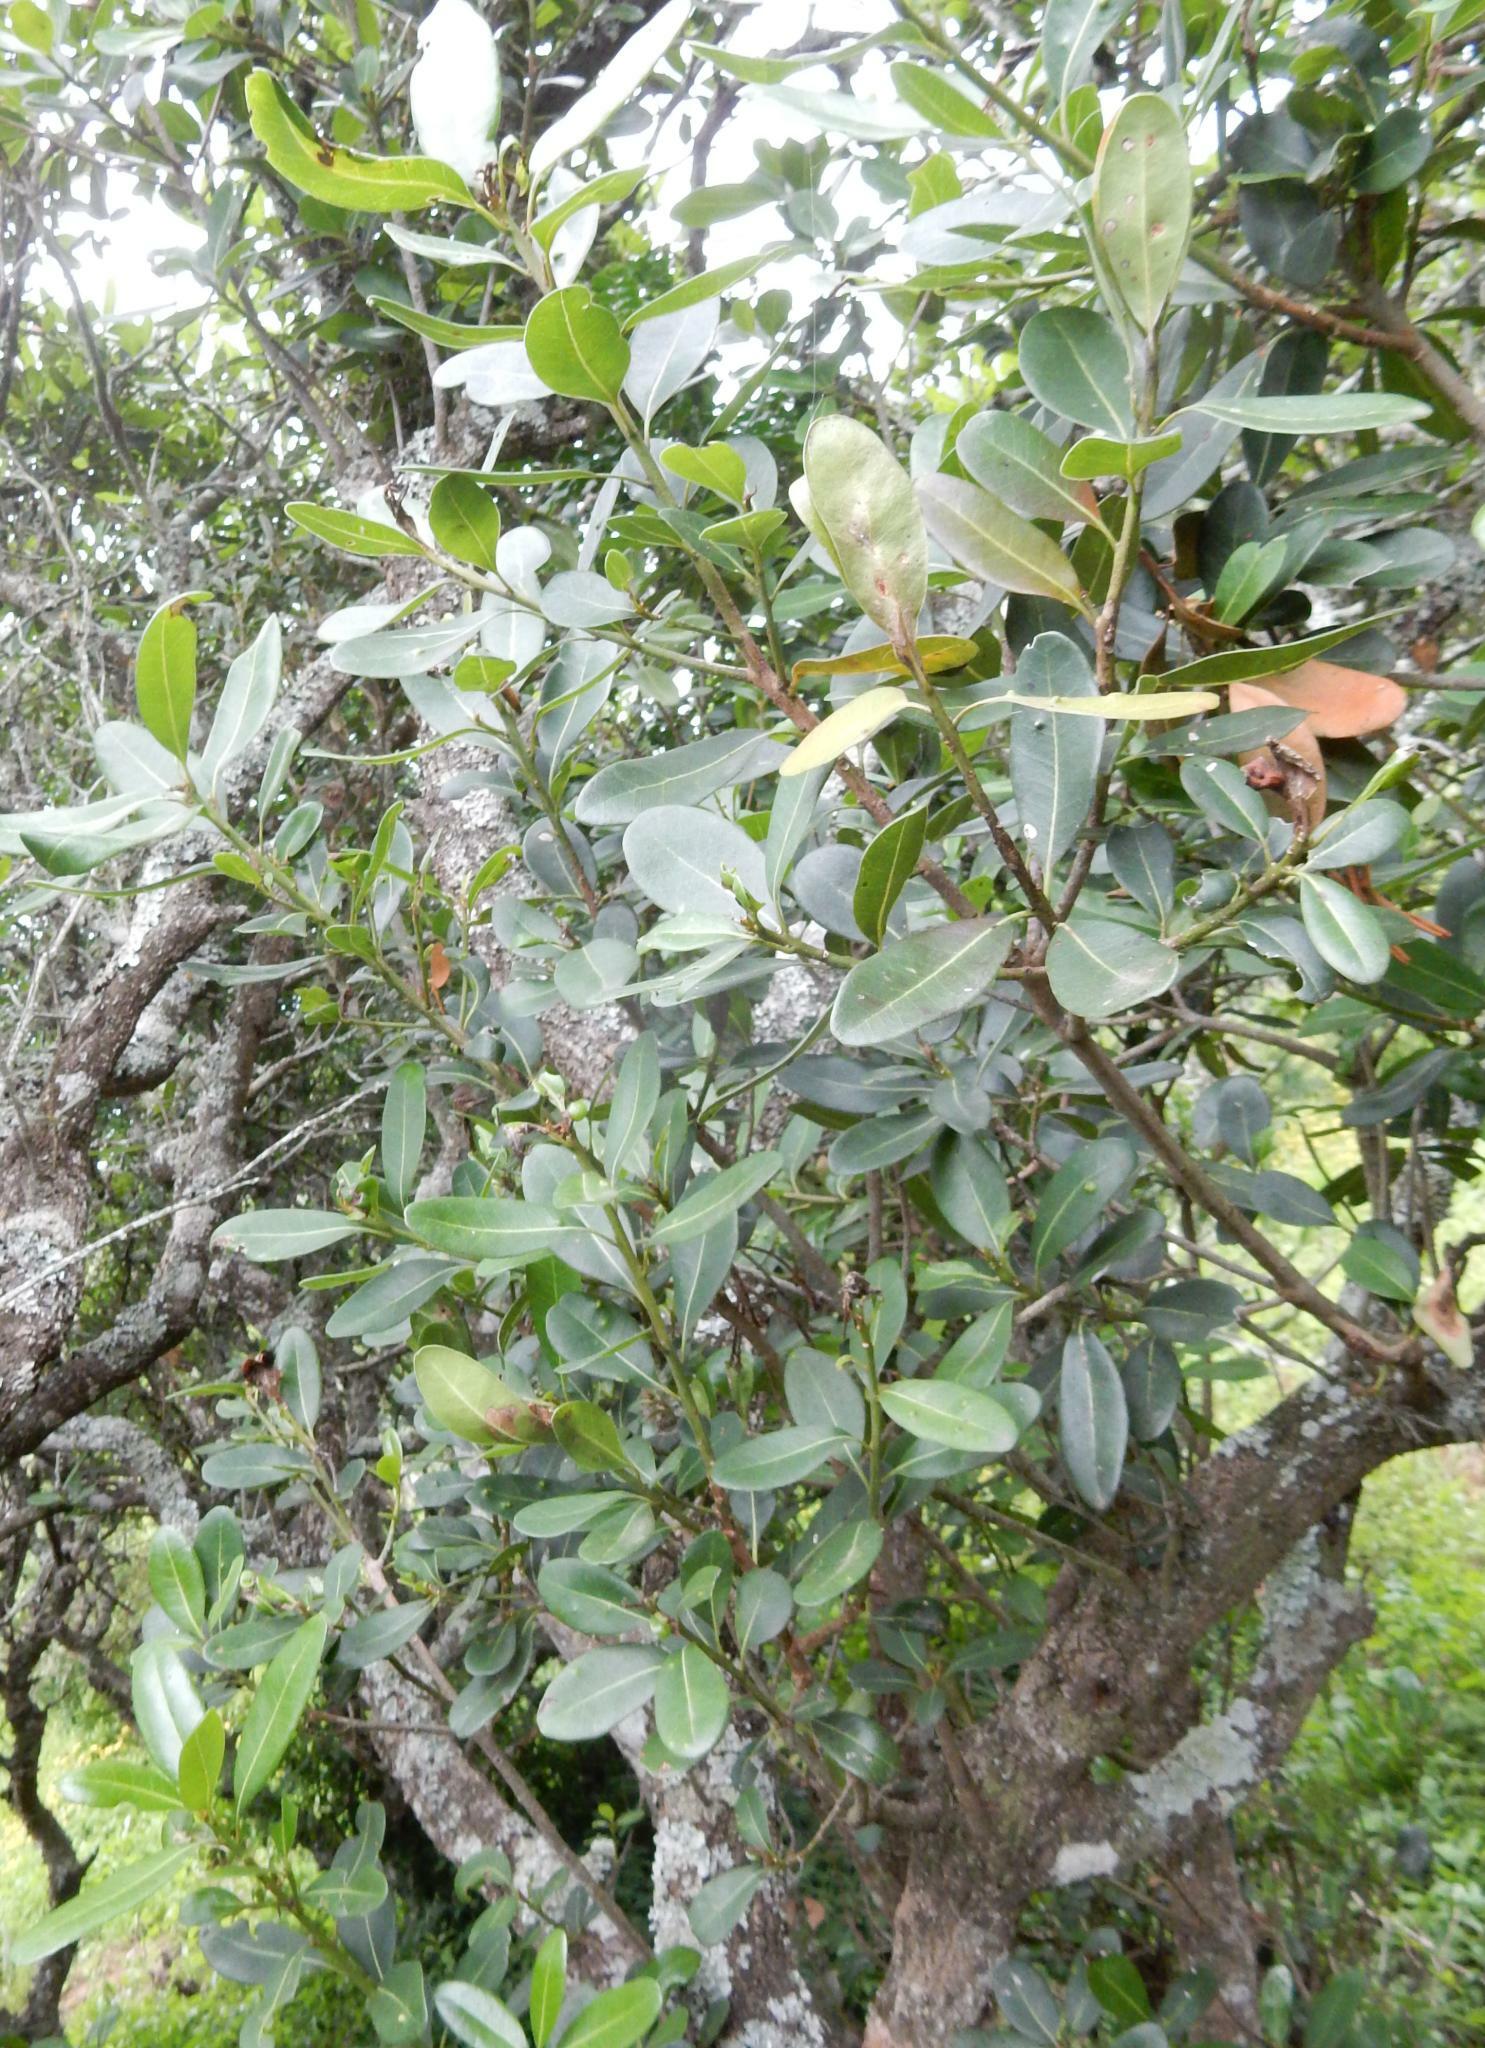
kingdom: Plantae
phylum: Tracheophyta
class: Magnoliopsida
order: Ericales
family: Sapotaceae
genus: Sideroxylon
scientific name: Sideroxylon inerme
